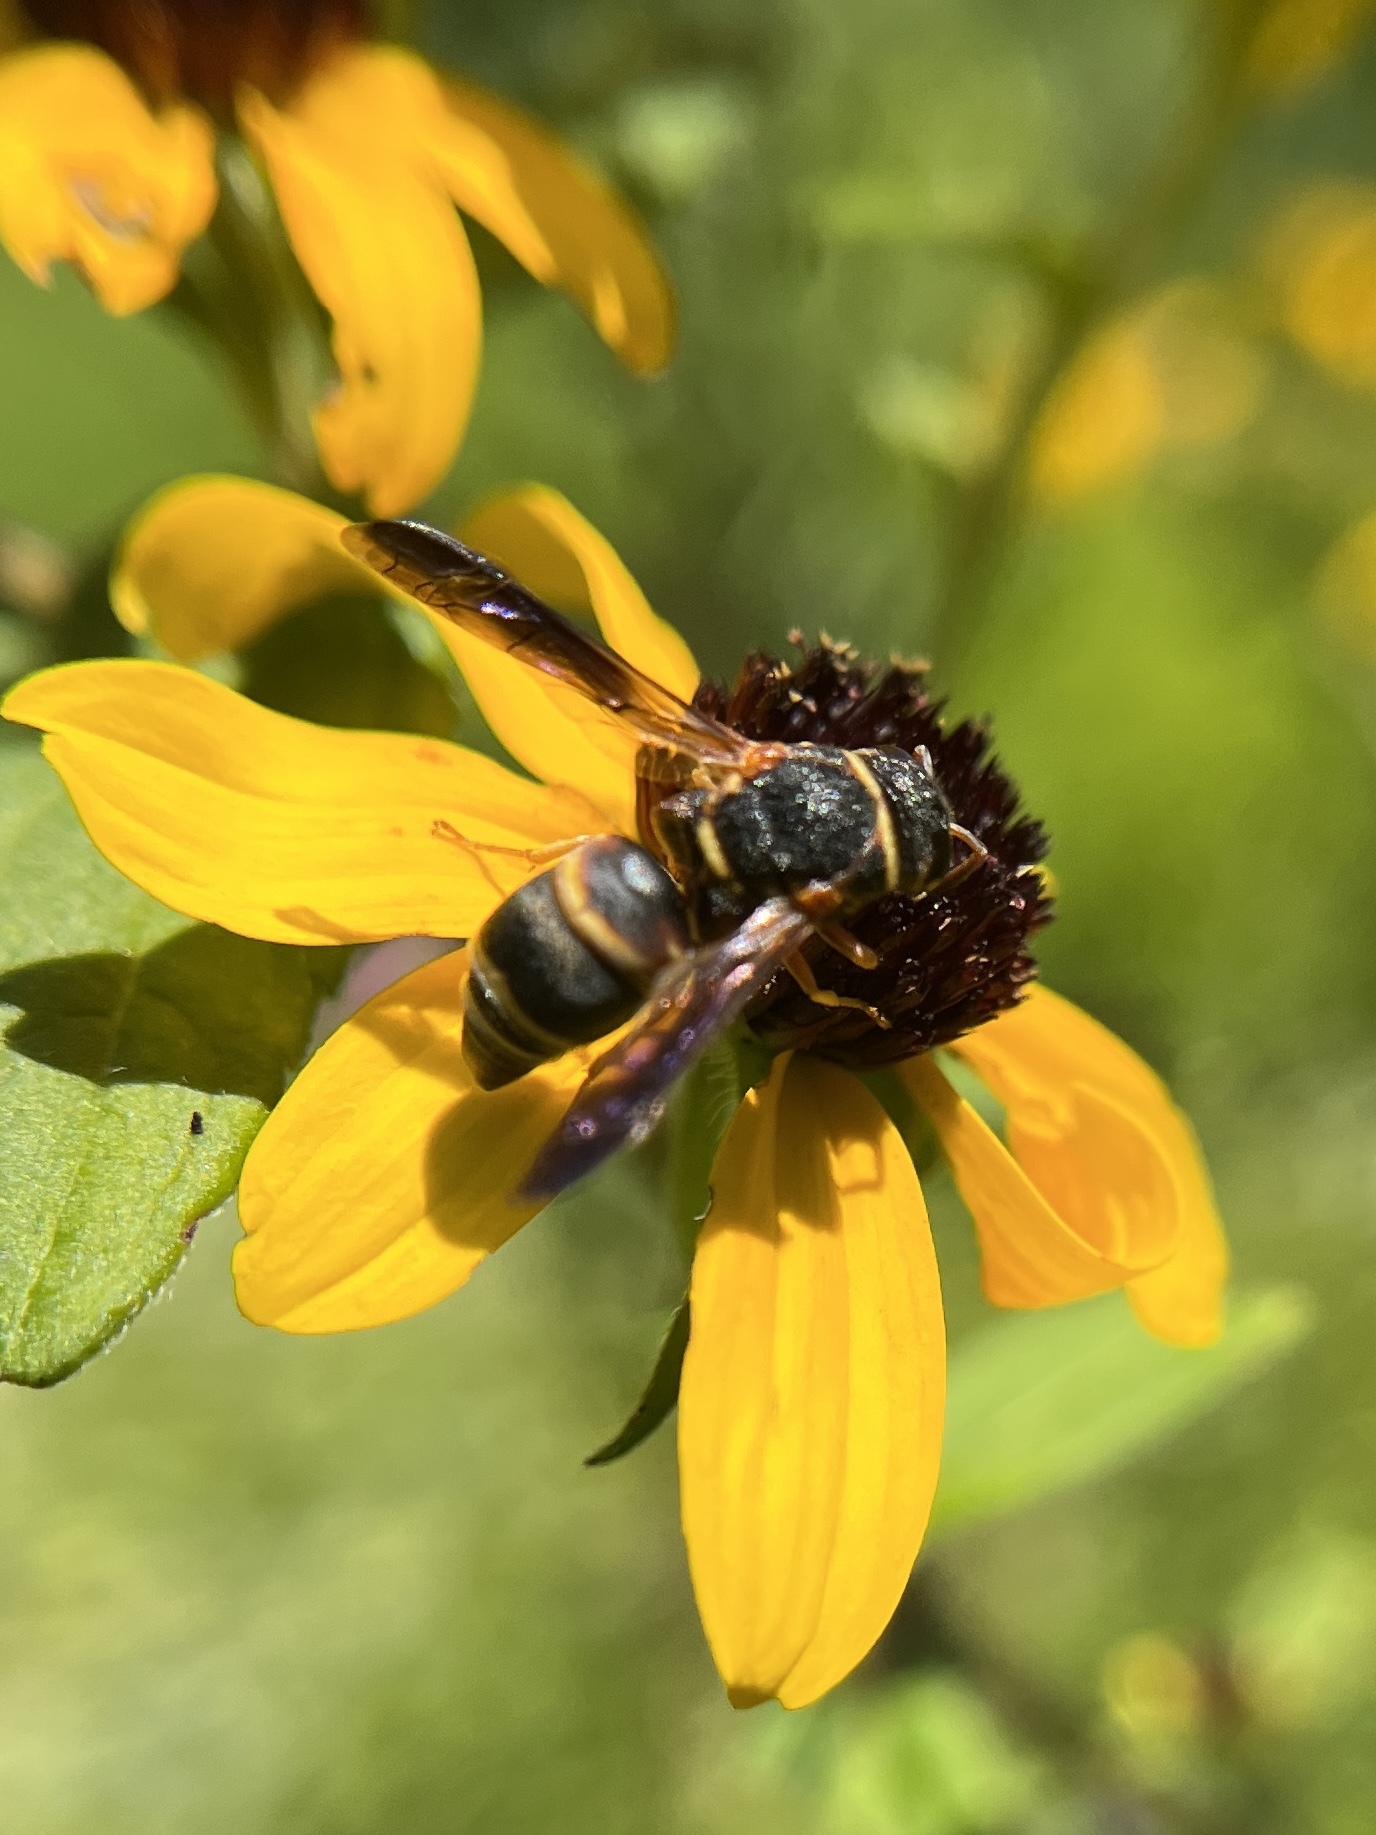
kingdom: Animalia
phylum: Arthropoda
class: Insecta
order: Hymenoptera
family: Eumenidae
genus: Euodynerus
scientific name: Euodynerus hidalgo
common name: Wasp
